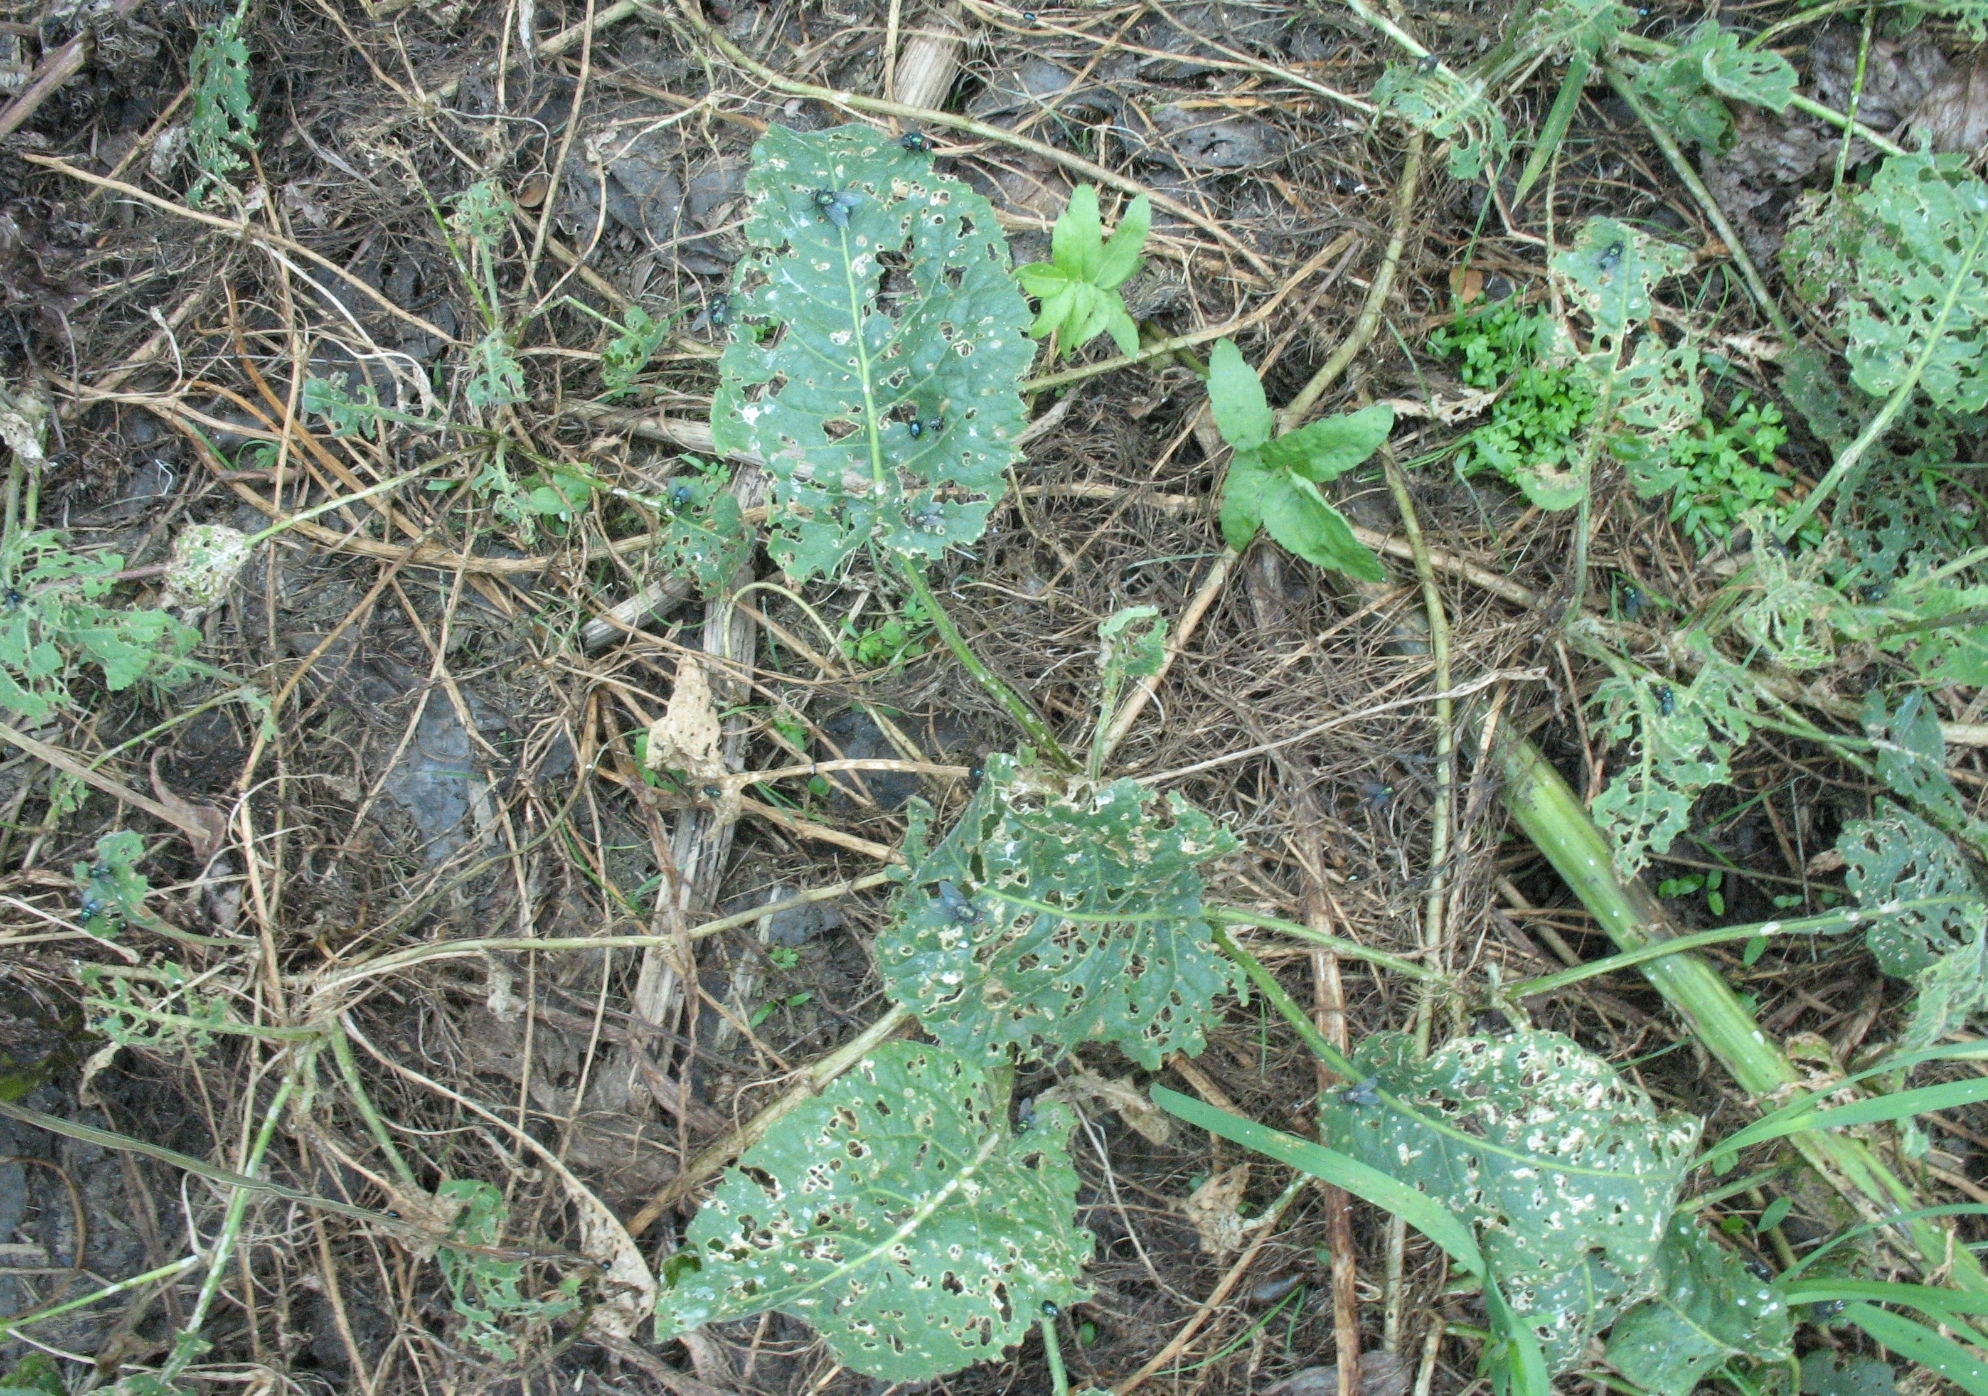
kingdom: Plantae
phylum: Tracheophyta
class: Magnoliopsida
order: Brassicales
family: Brassicaceae
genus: Rorippa
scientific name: Rorippa amphibia
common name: Great yellow-cress
